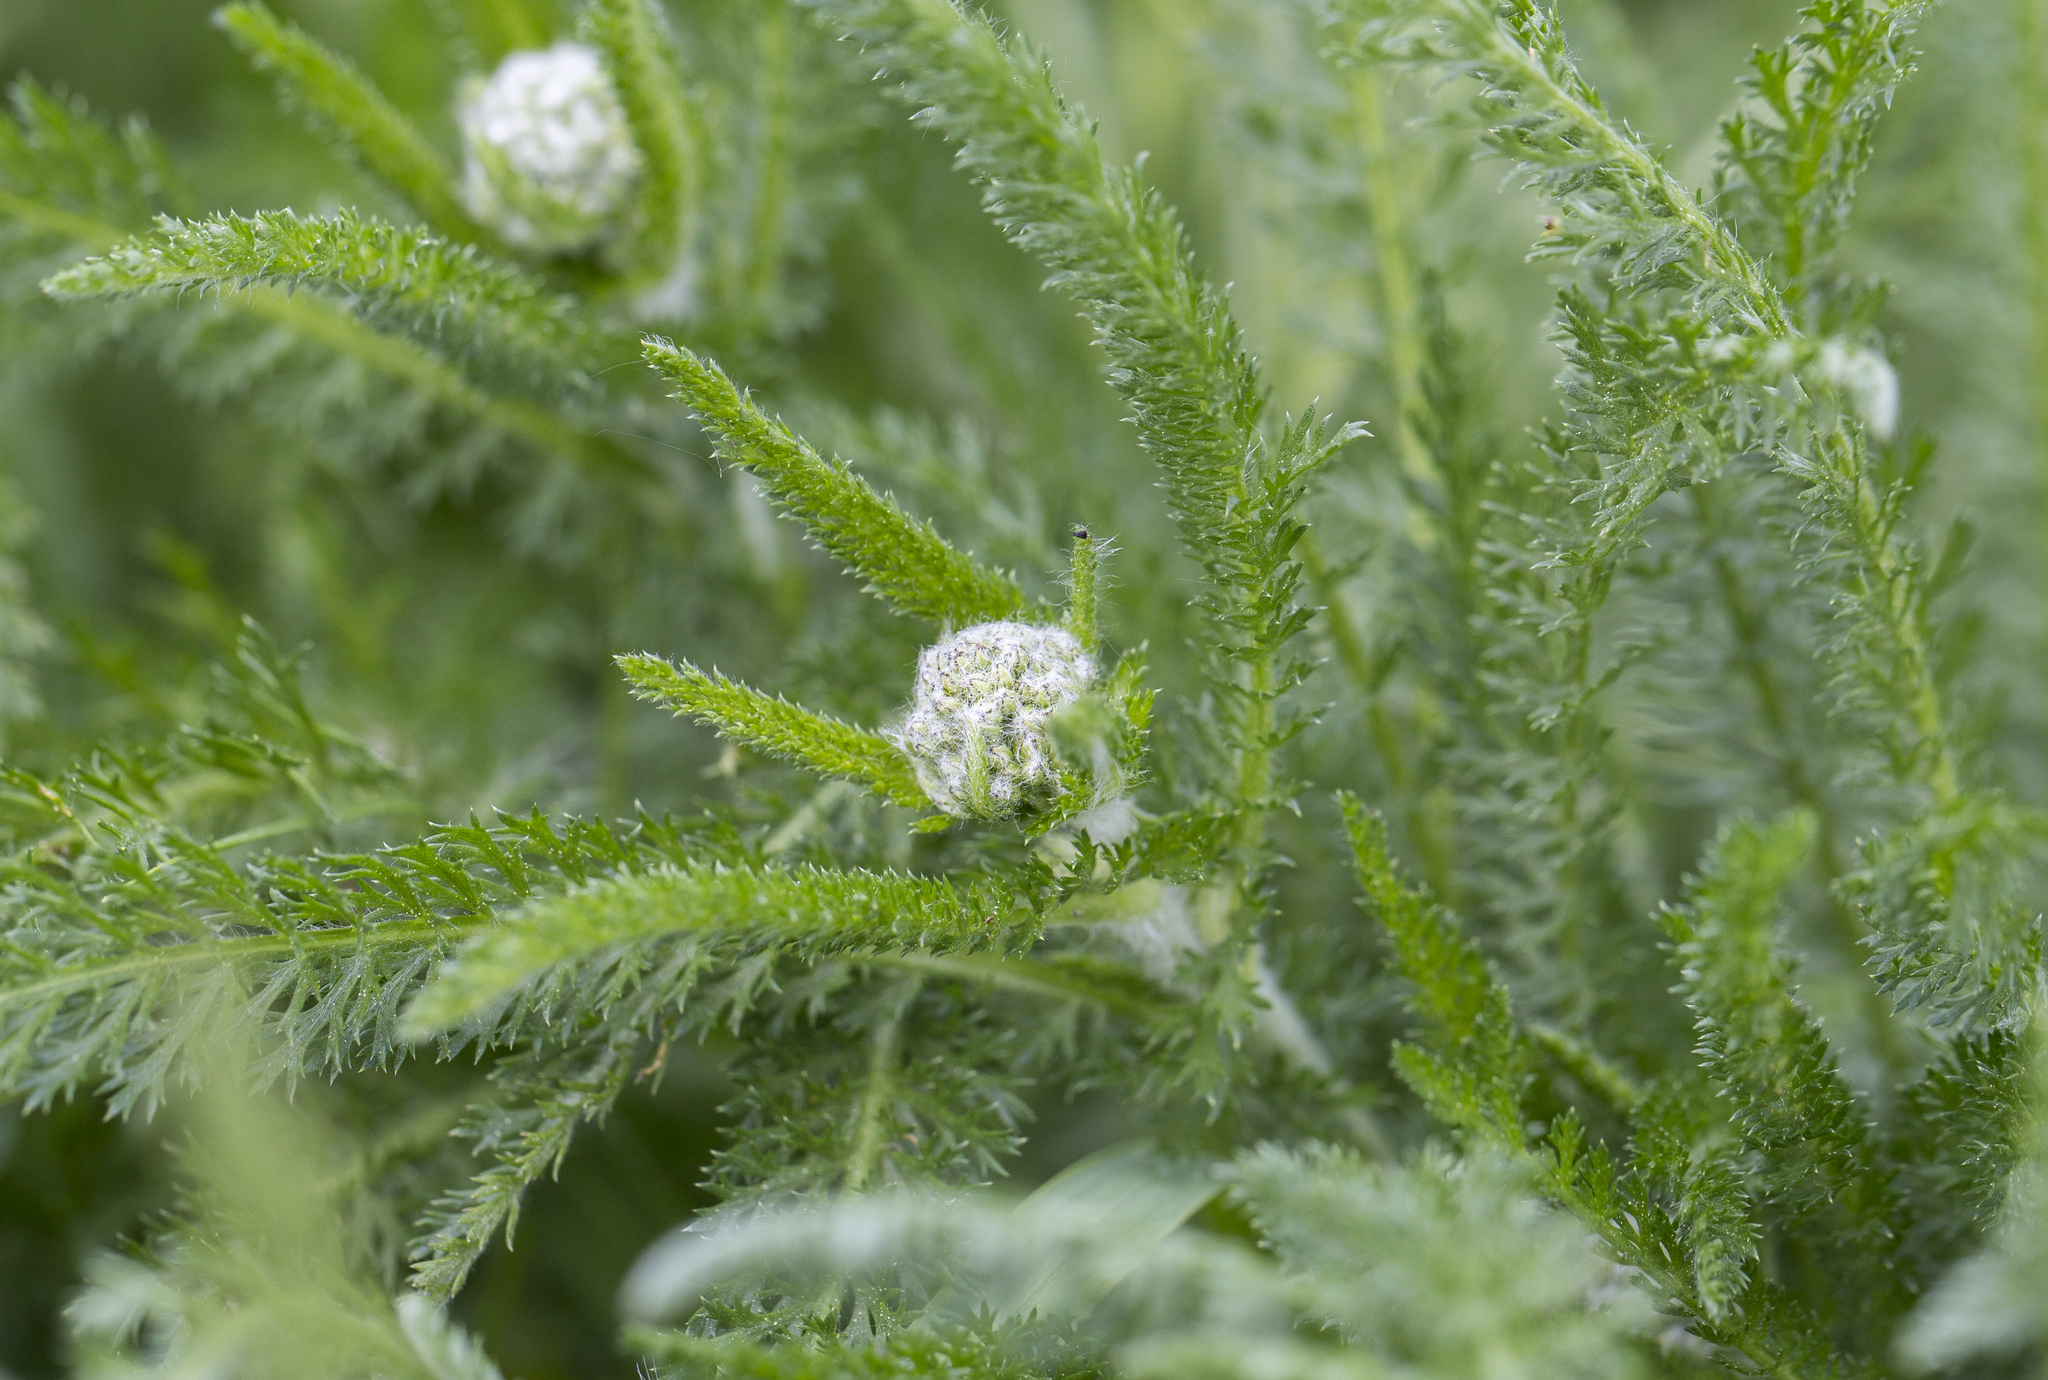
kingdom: Plantae
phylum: Tracheophyta
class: Magnoliopsida
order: Asterales
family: Asteraceae
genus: Achillea
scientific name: Achillea millefolium
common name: Yarrow
